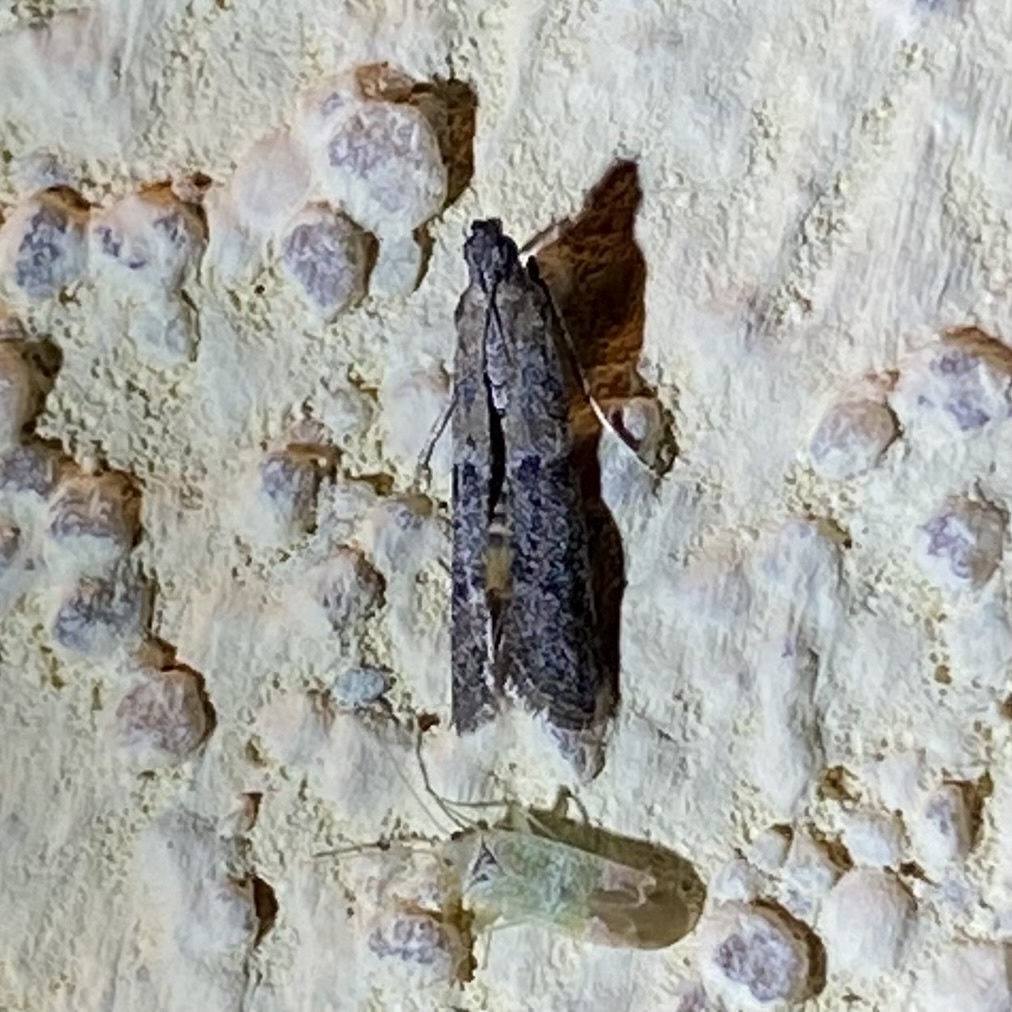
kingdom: Animalia
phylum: Arthropoda
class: Insecta
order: Lepidoptera
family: Pyralidae
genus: Ephestiodes
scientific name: Ephestiodes gilvescentella
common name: Moth
